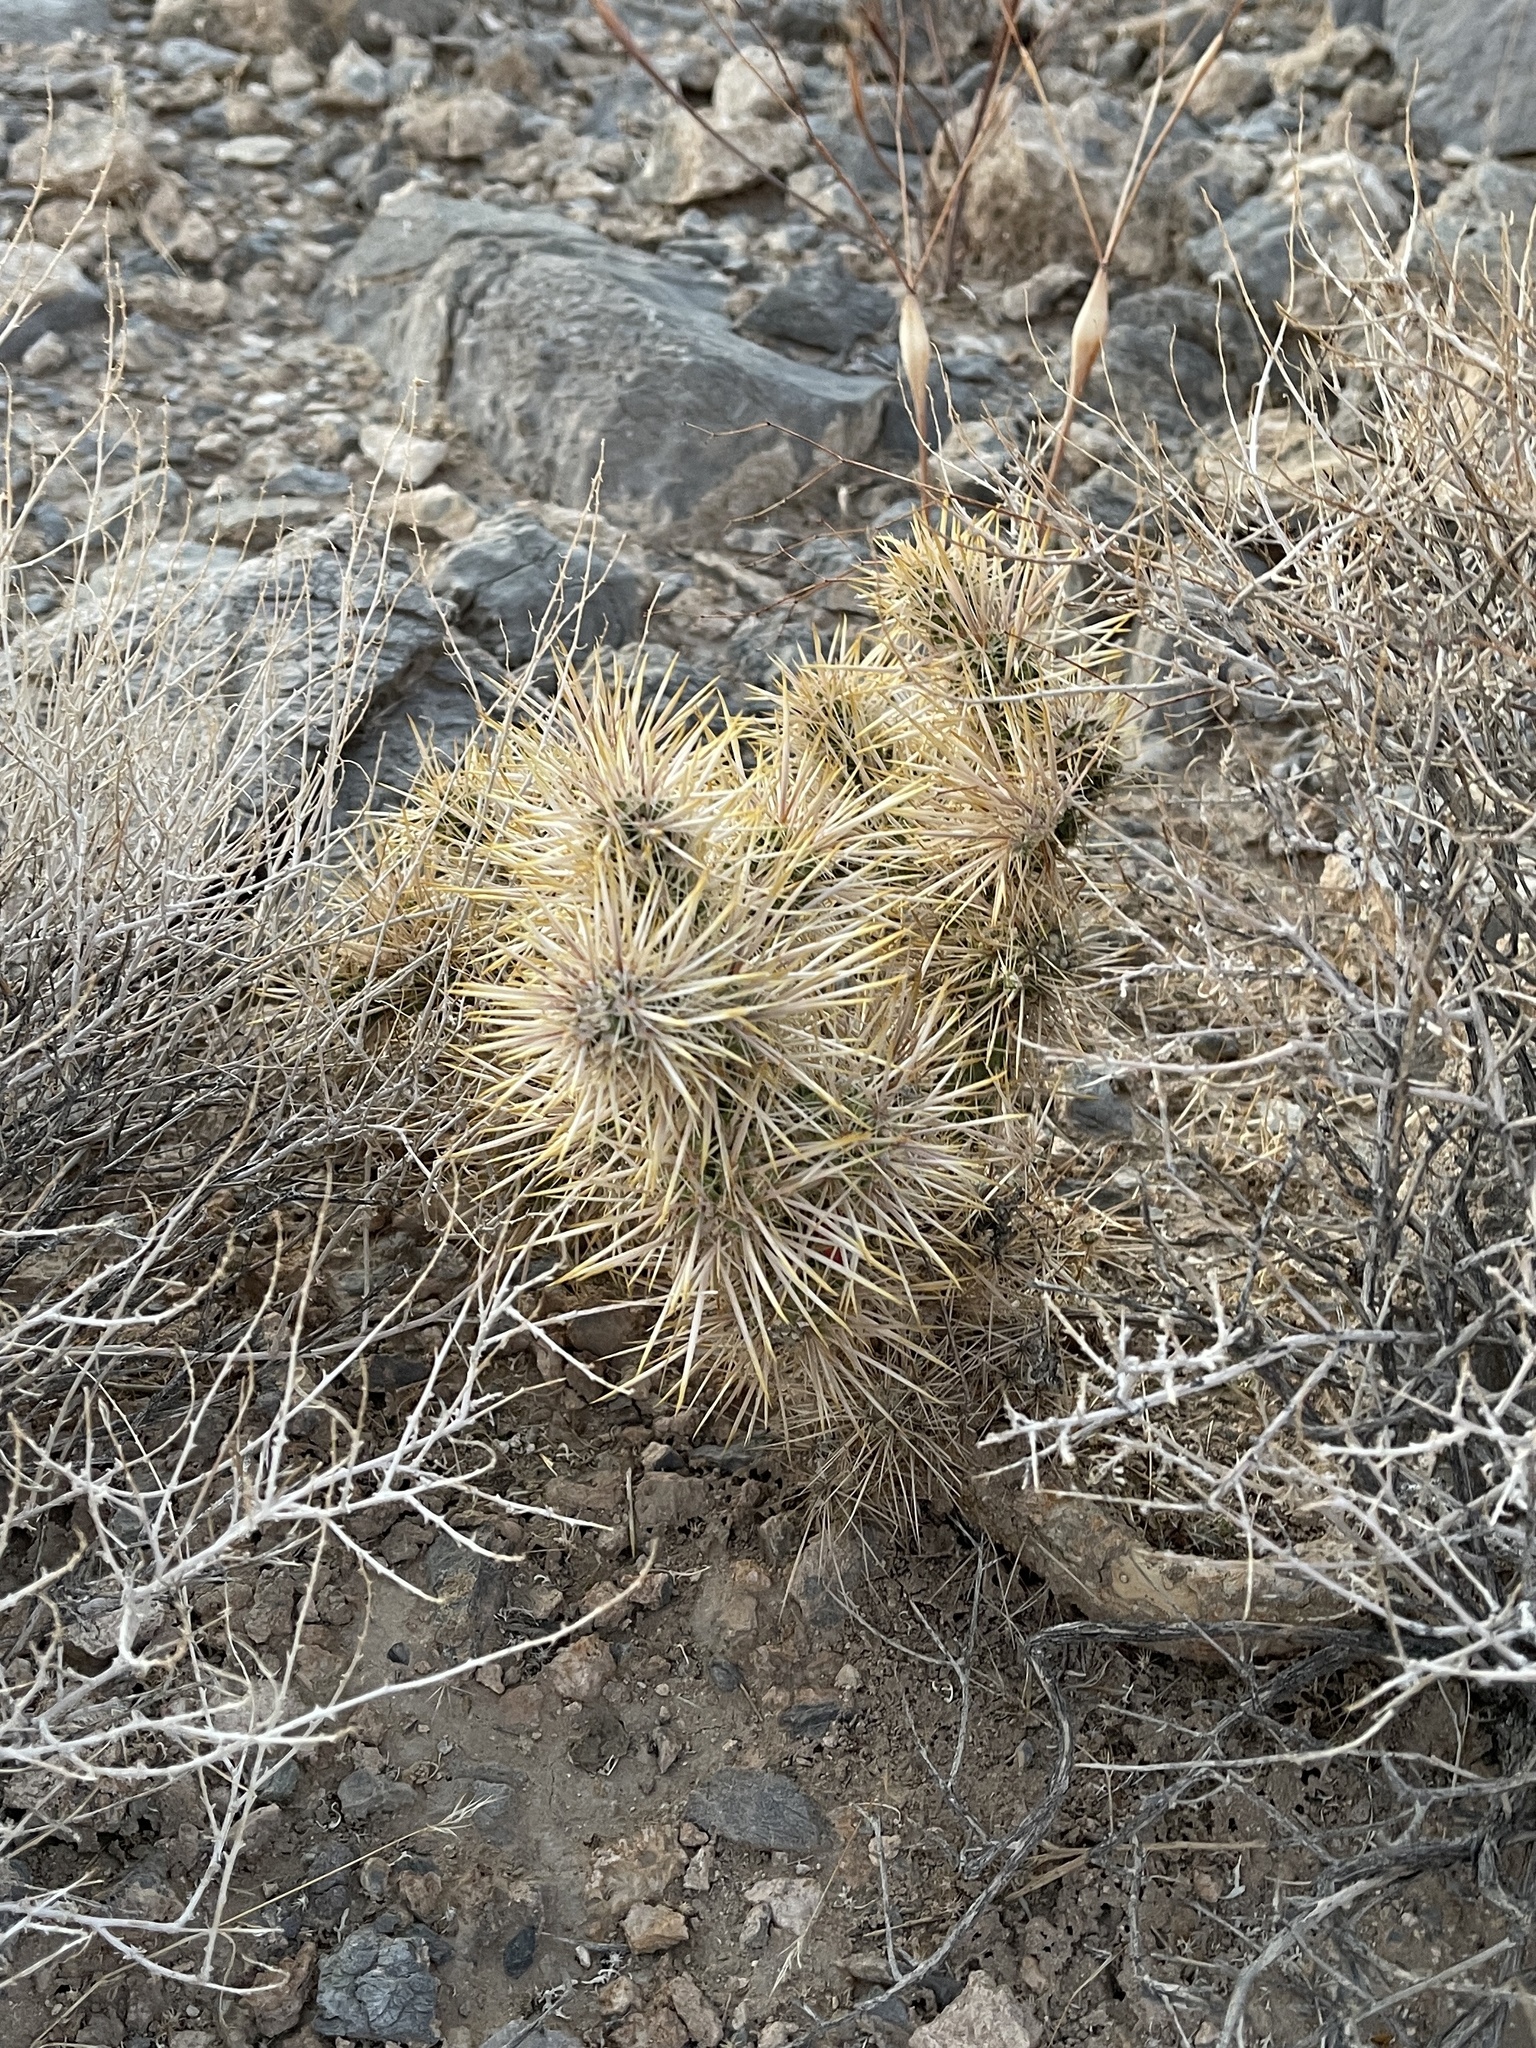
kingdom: Plantae
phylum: Tracheophyta
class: Magnoliopsida
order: Caryophyllales
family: Cactaceae
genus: Cylindropuntia
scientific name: Cylindropuntia echinocarpa
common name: Ground cholla
